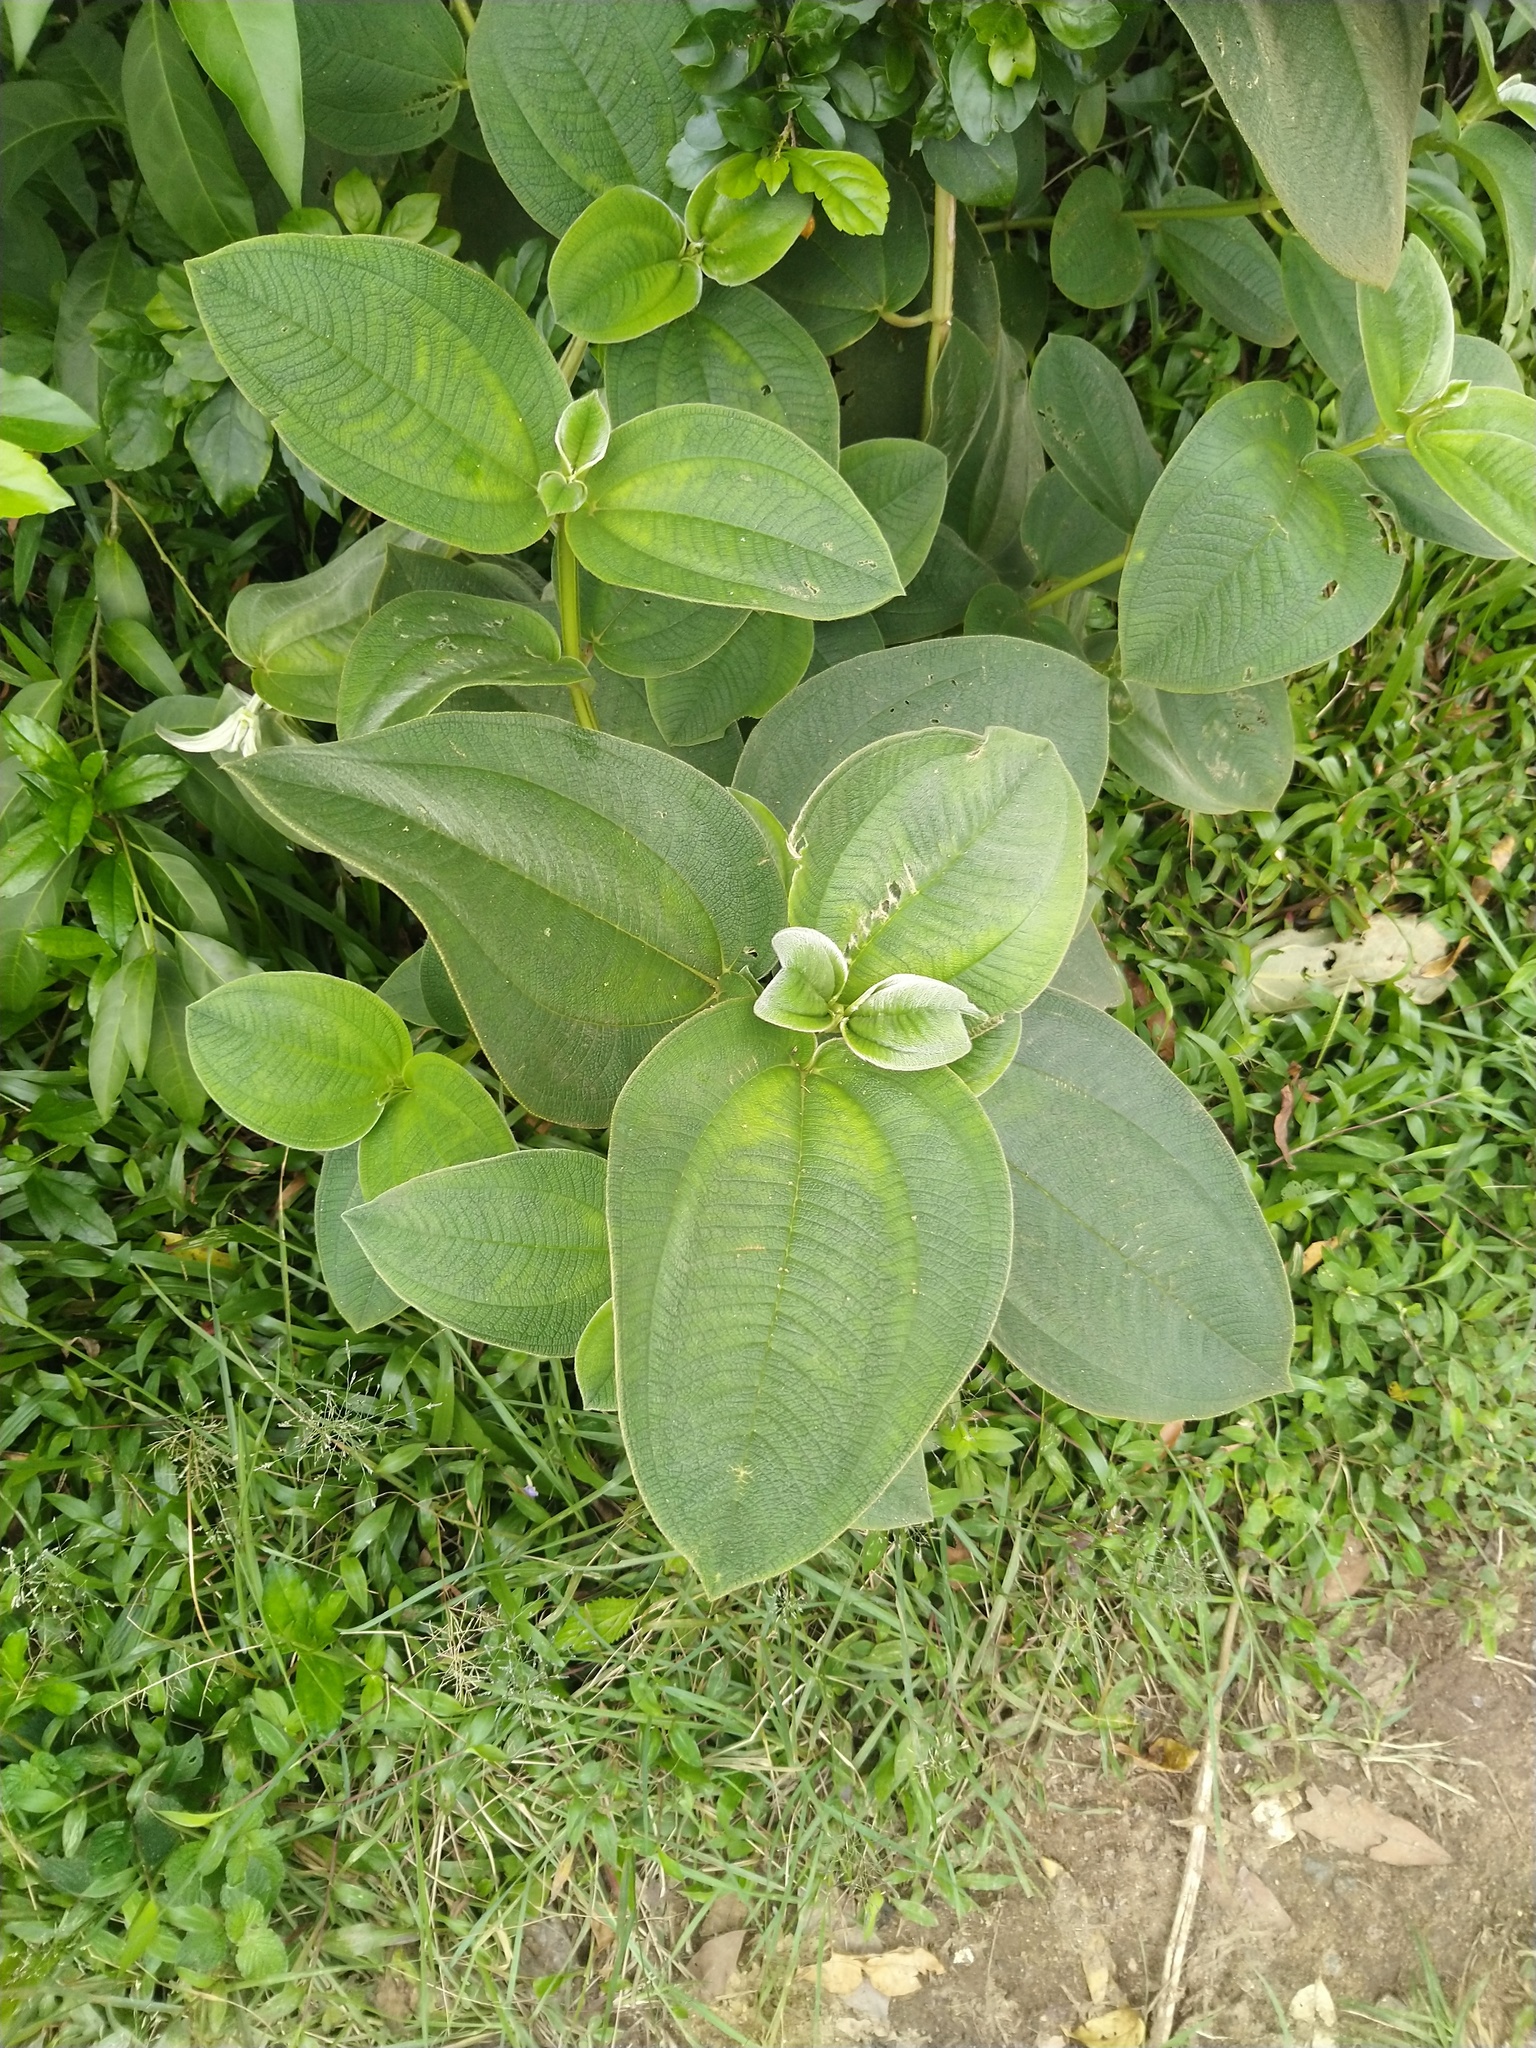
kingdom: Plantae
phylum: Tracheophyta
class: Magnoliopsida
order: Myrtales
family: Melastomataceae
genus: Pleroma
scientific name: Pleroma heteromallum
